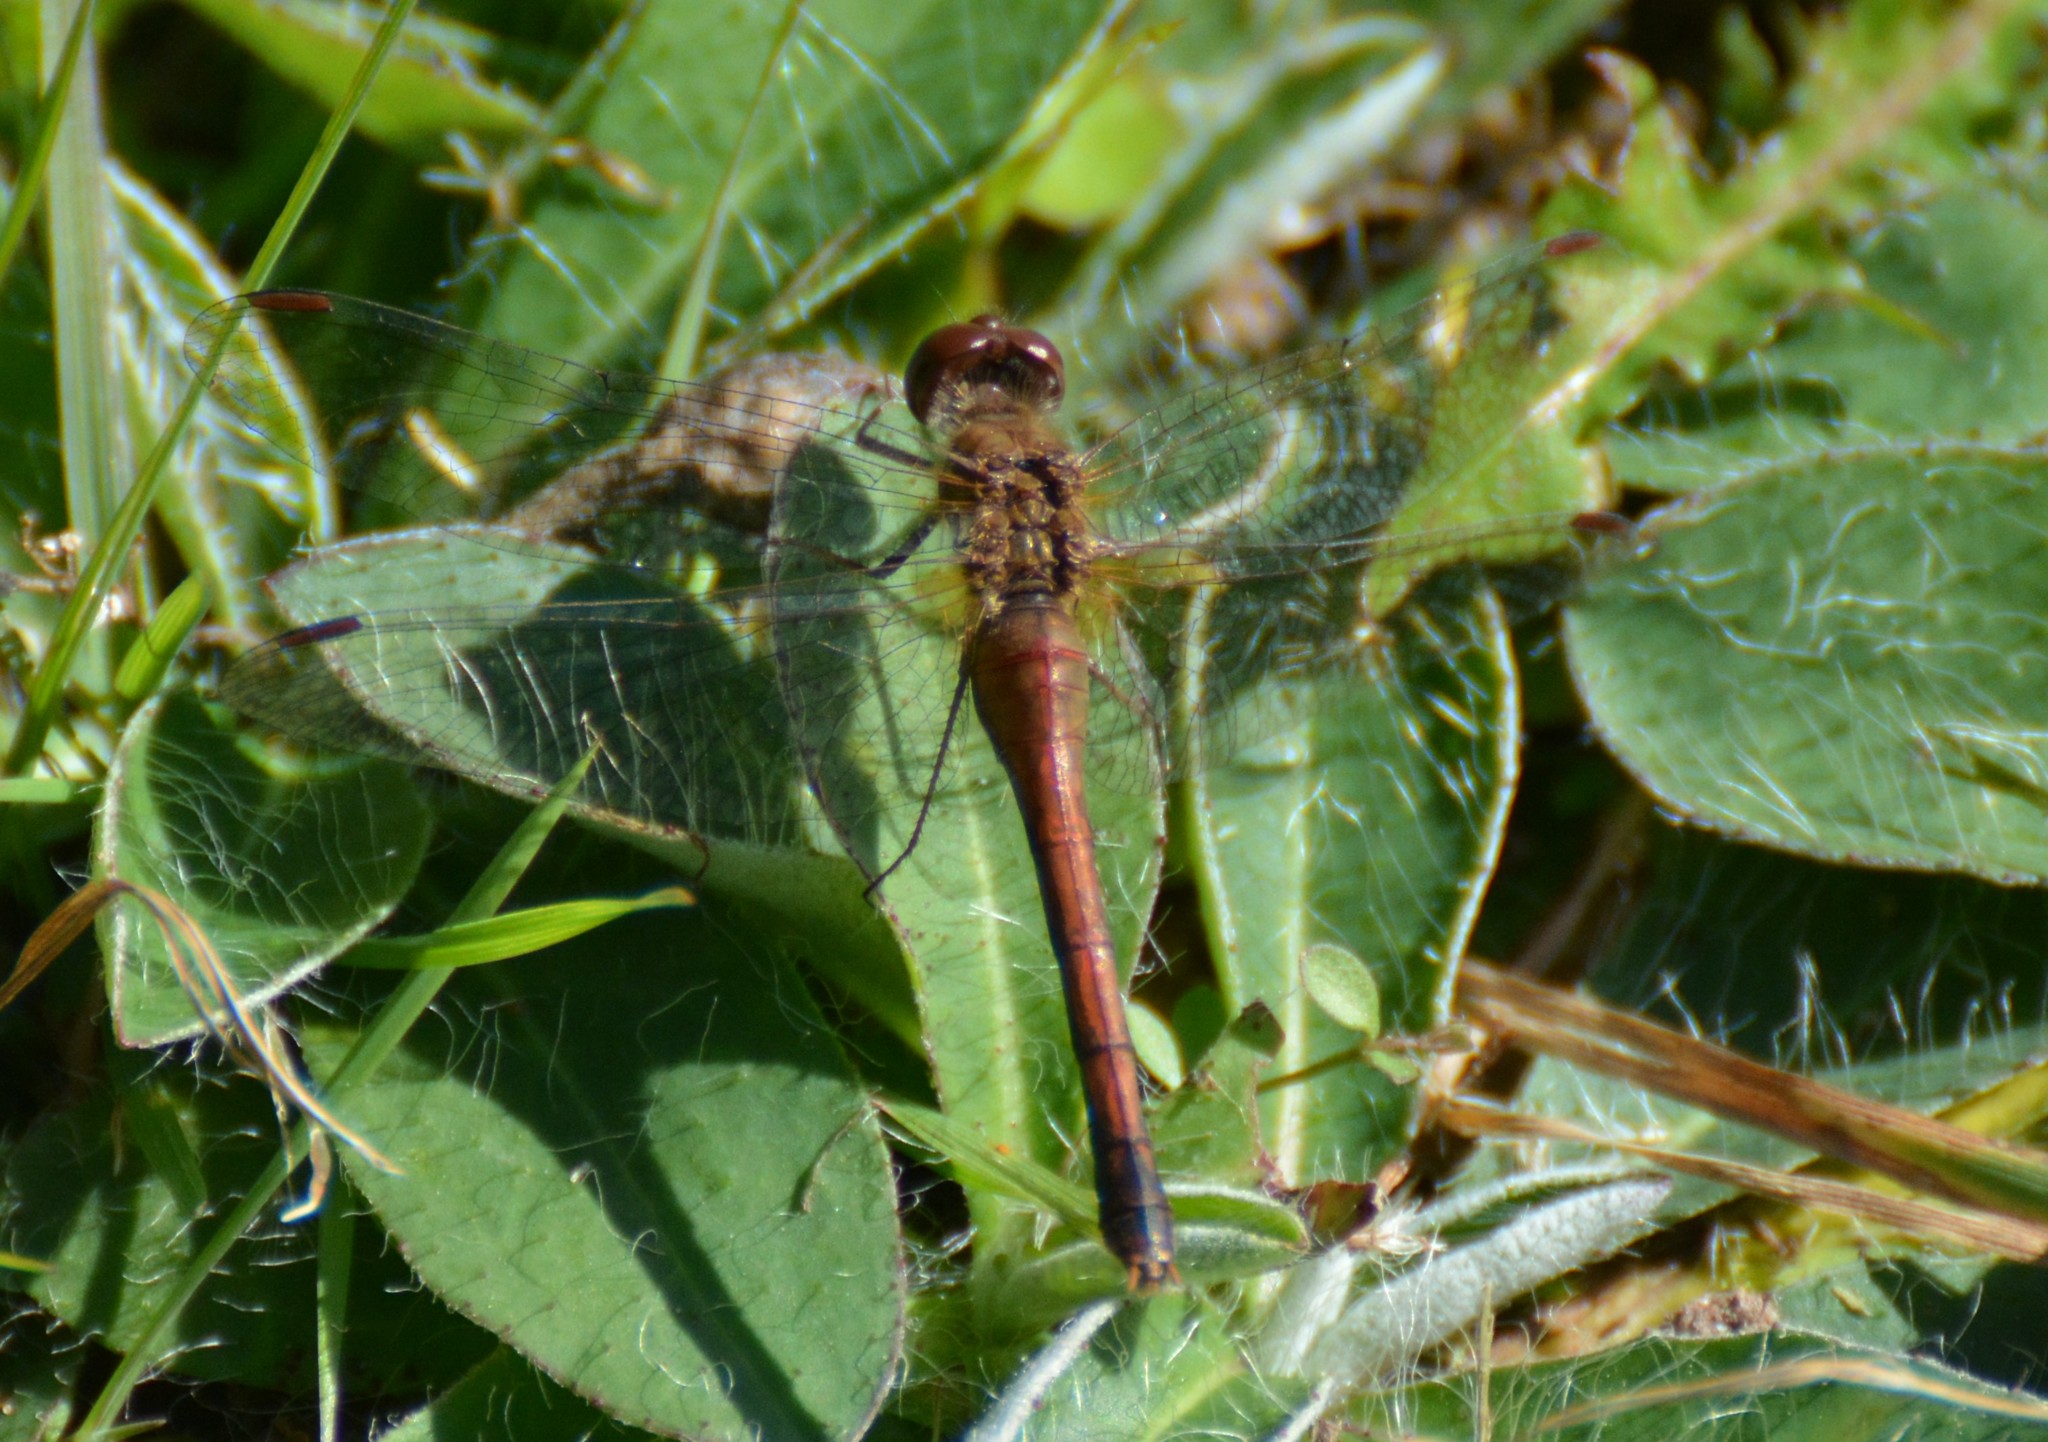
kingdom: Animalia
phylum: Arthropoda
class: Insecta
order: Odonata
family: Libellulidae
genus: Sympetrum
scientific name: Sympetrum vicinum
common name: Autumn meadowhawk
